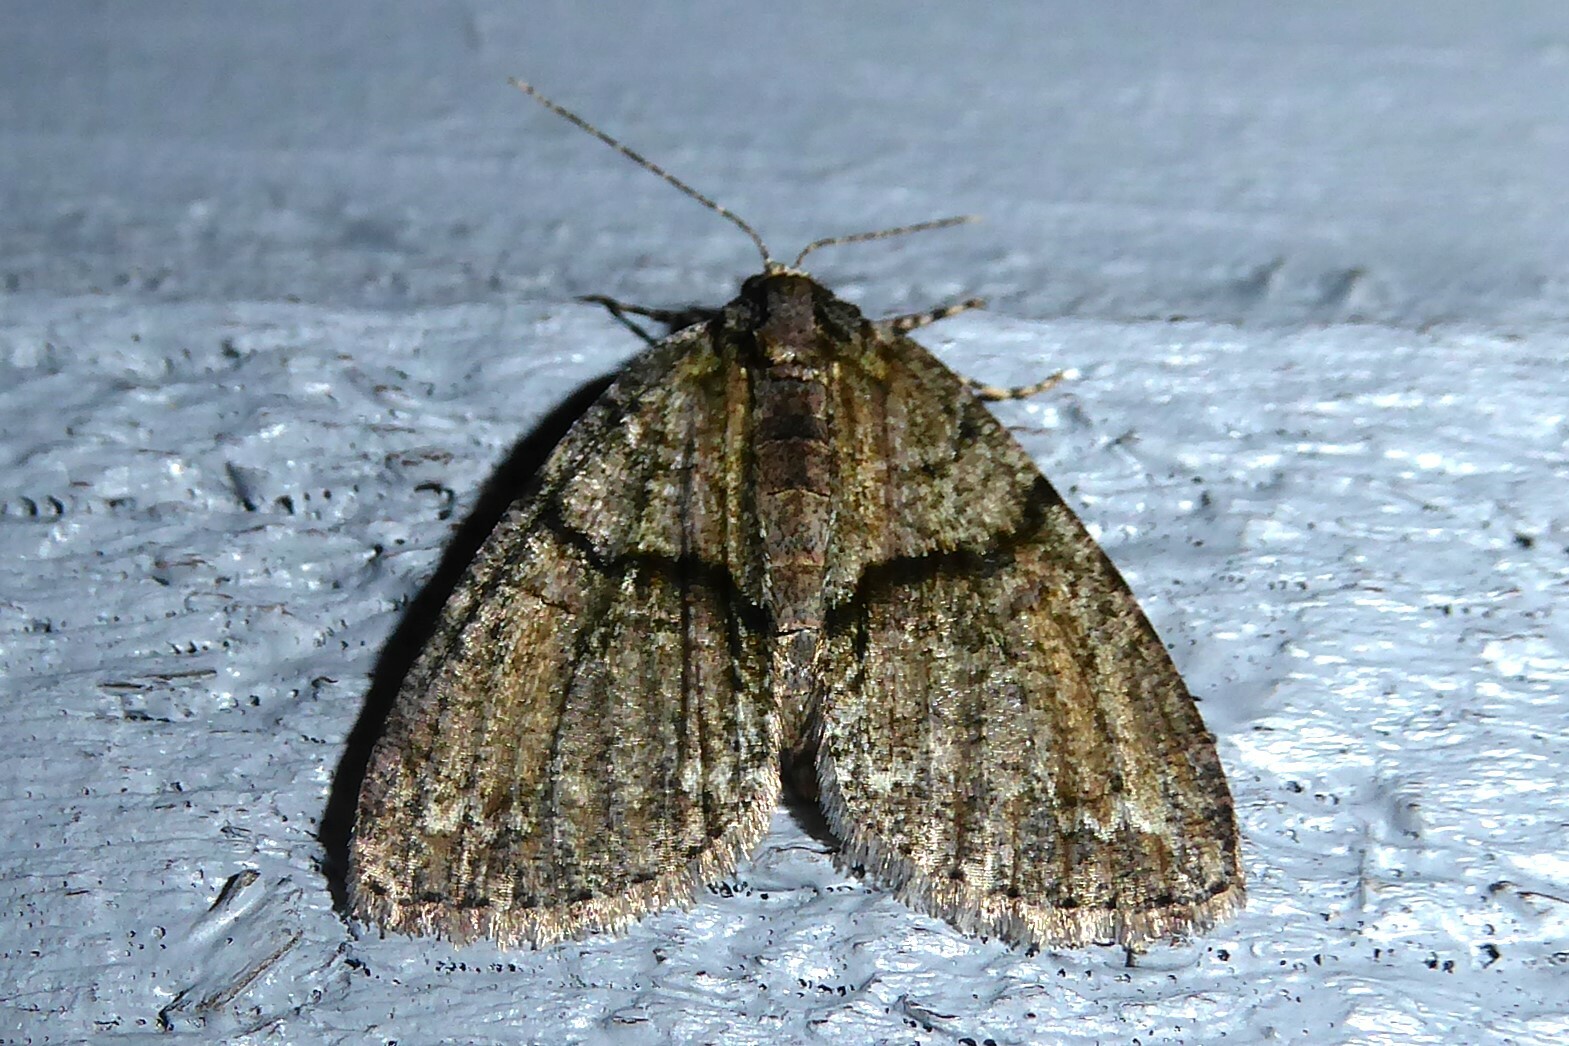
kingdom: Animalia
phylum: Arthropoda
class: Insecta
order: Lepidoptera
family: Geometridae
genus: Pseudocoremia
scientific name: Pseudocoremia suavis
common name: Common forest looper
